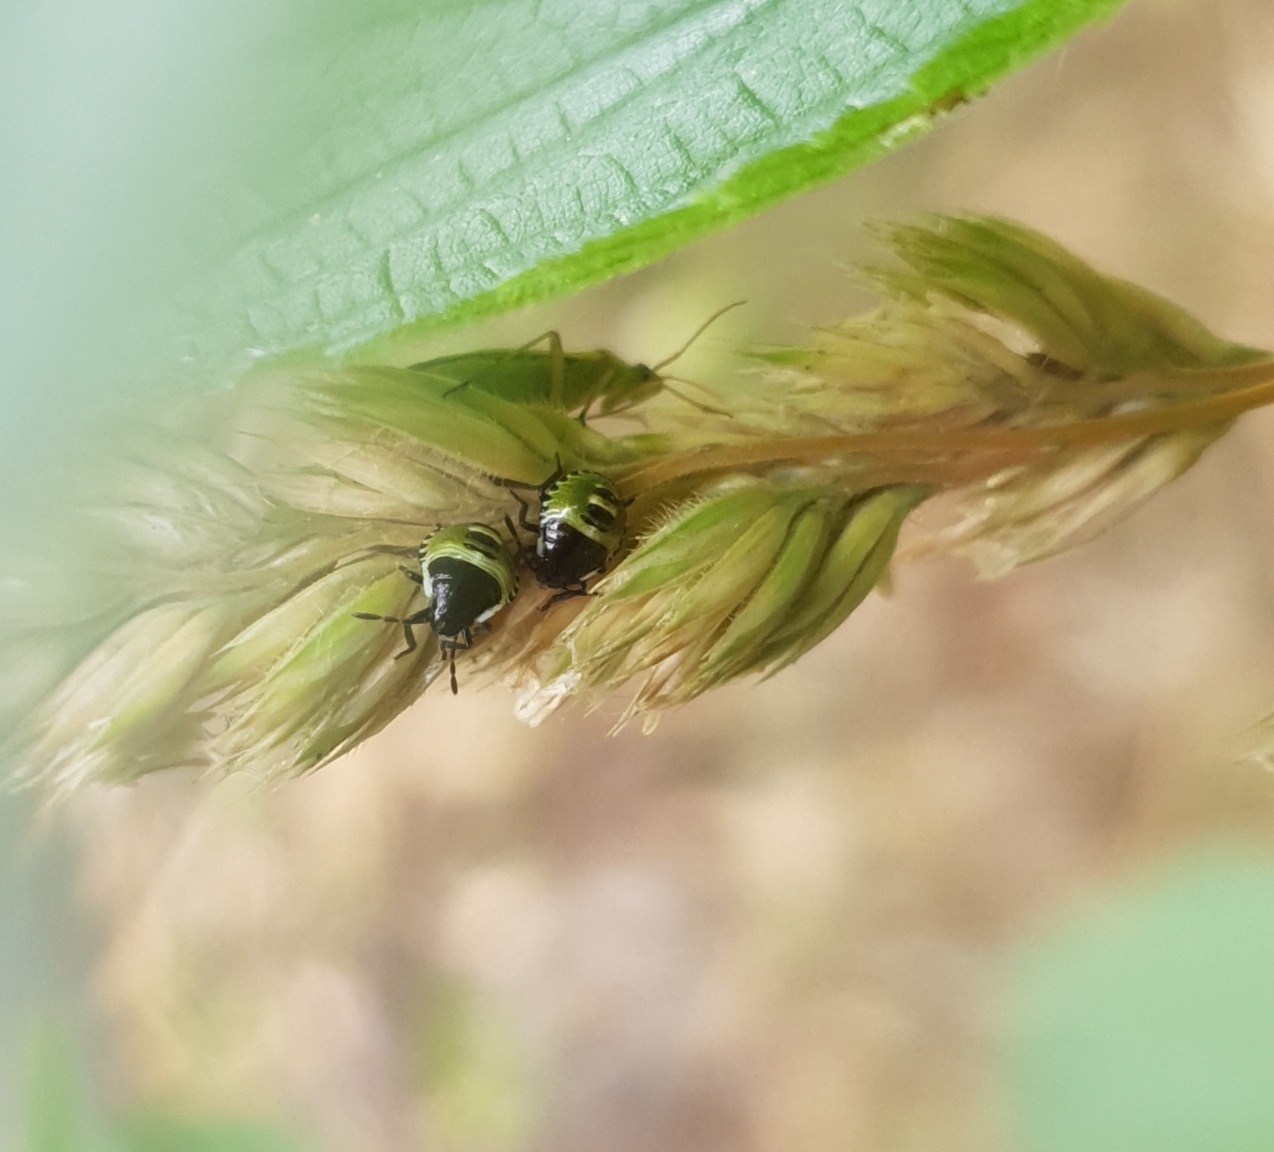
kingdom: Animalia
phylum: Arthropoda
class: Insecta
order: Hemiptera
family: Pentatomidae
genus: Palomena
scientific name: Palomena prasina
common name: Green shieldbug
